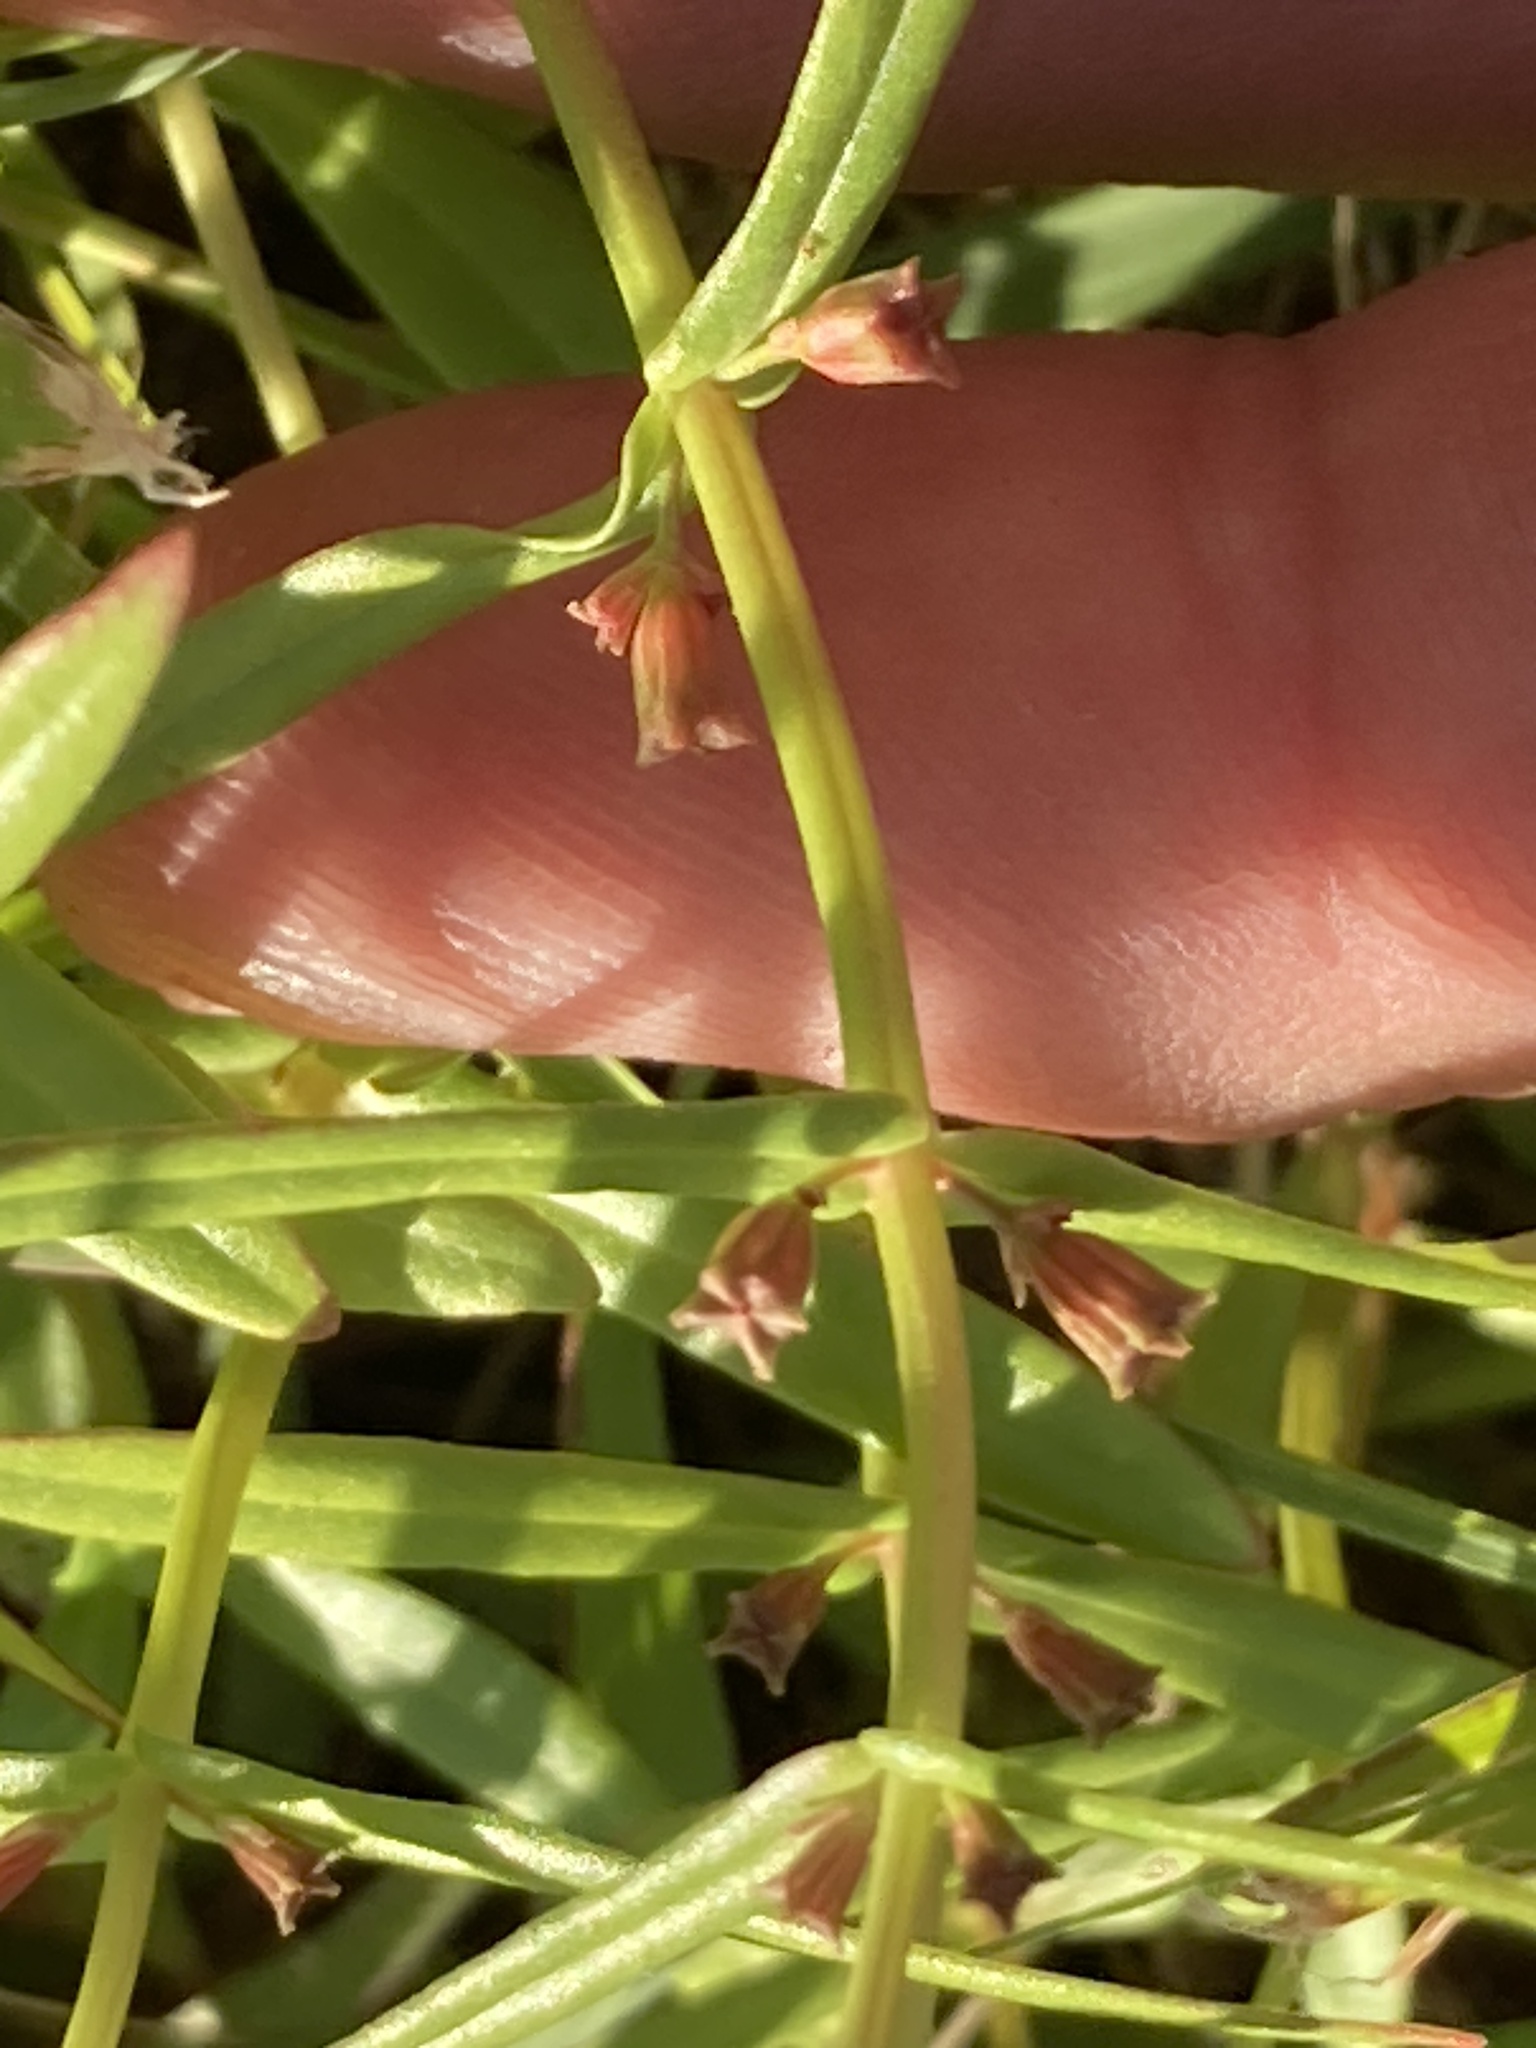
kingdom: Plantae
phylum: Tracheophyta
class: Magnoliopsida
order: Myrtales
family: Lythraceae
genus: Ammannia
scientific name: Ammannia coccinea
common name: Valley redstem
